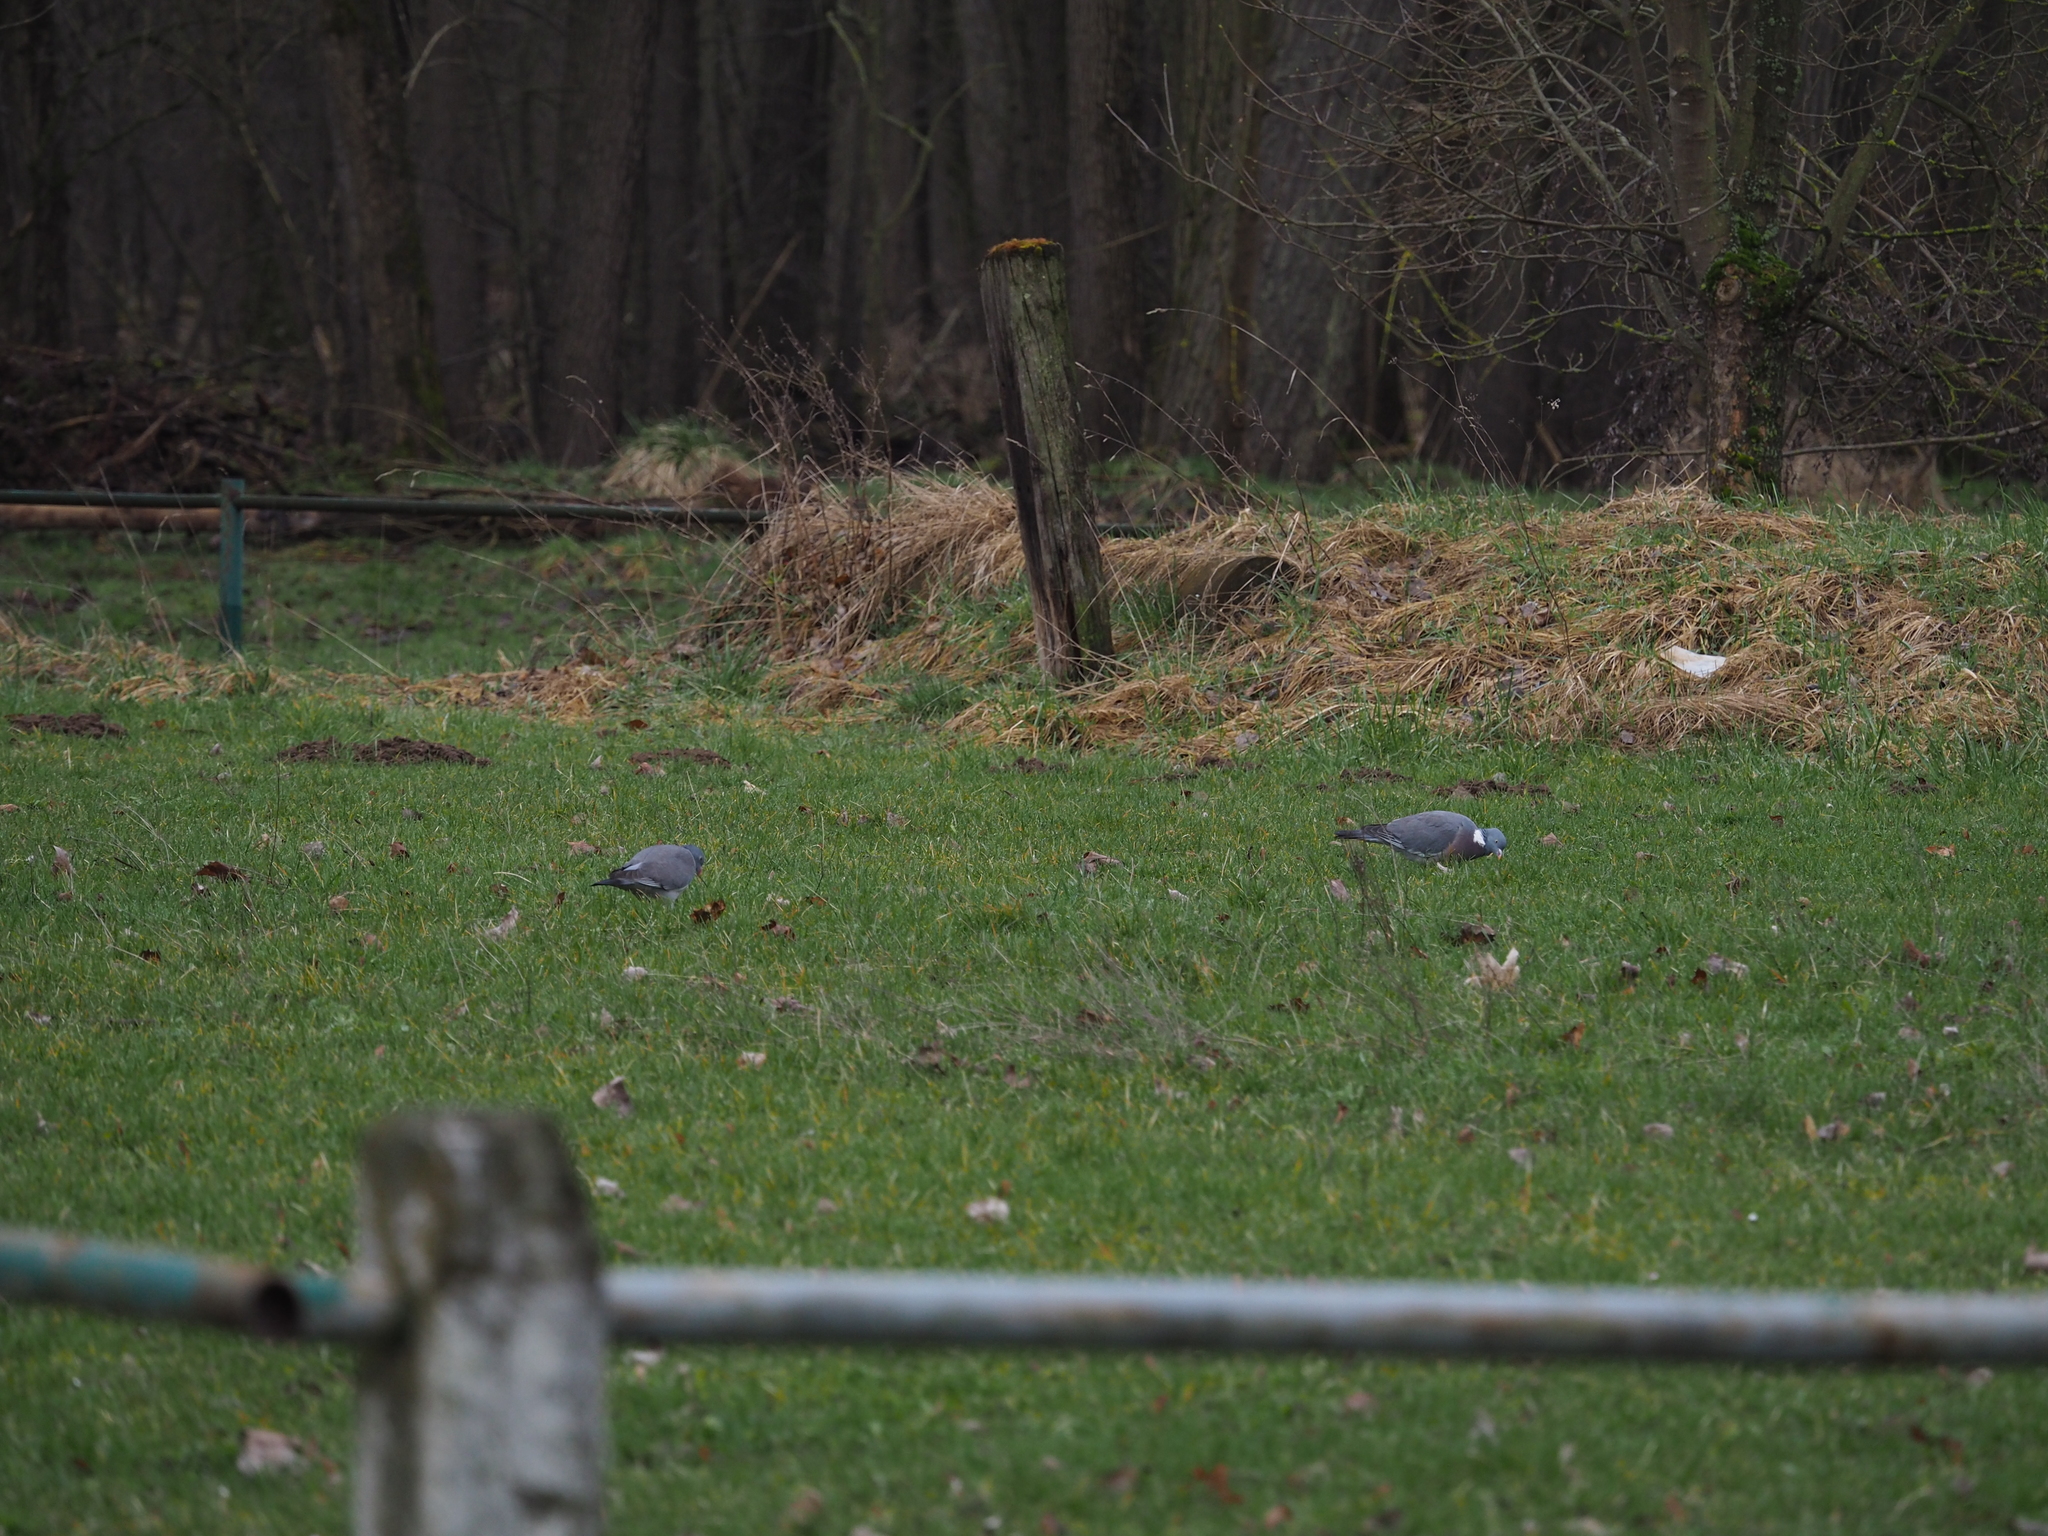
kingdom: Animalia
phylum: Chordata
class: Aves
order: Columbiformes
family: Columbidae
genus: Columba
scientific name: Columba palumbus
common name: Common wood pigeon
